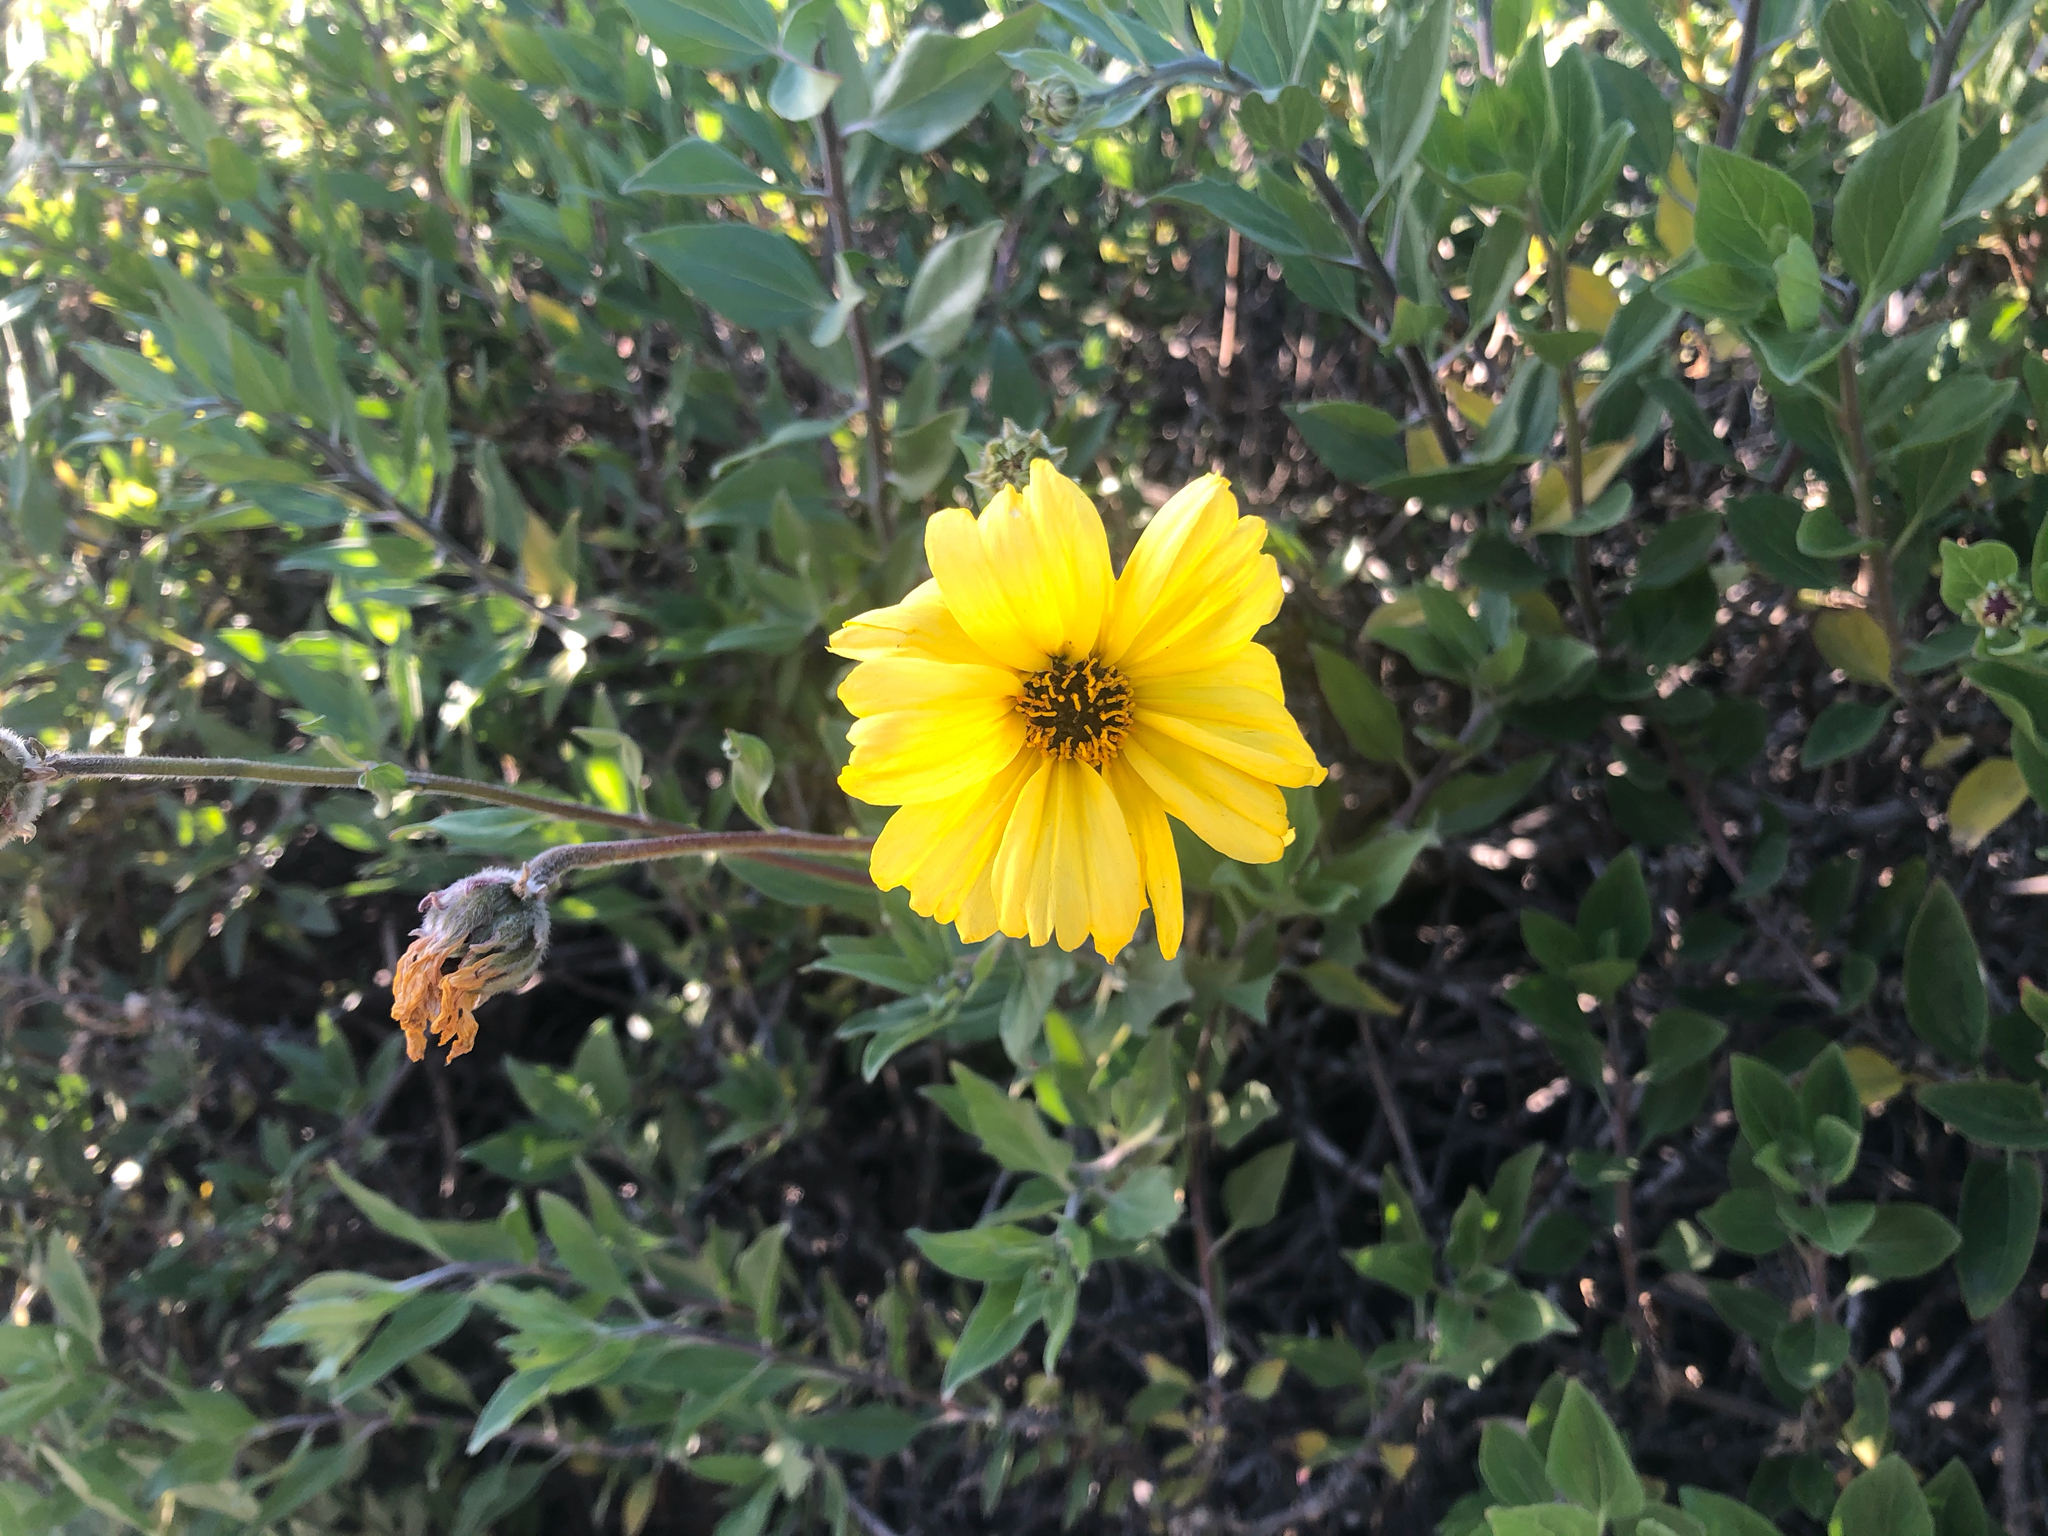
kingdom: Plantae
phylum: Tracheophyta
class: Magnoliopsida
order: Asterales
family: Asteraceae
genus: Encelia
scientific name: Encelia californica
